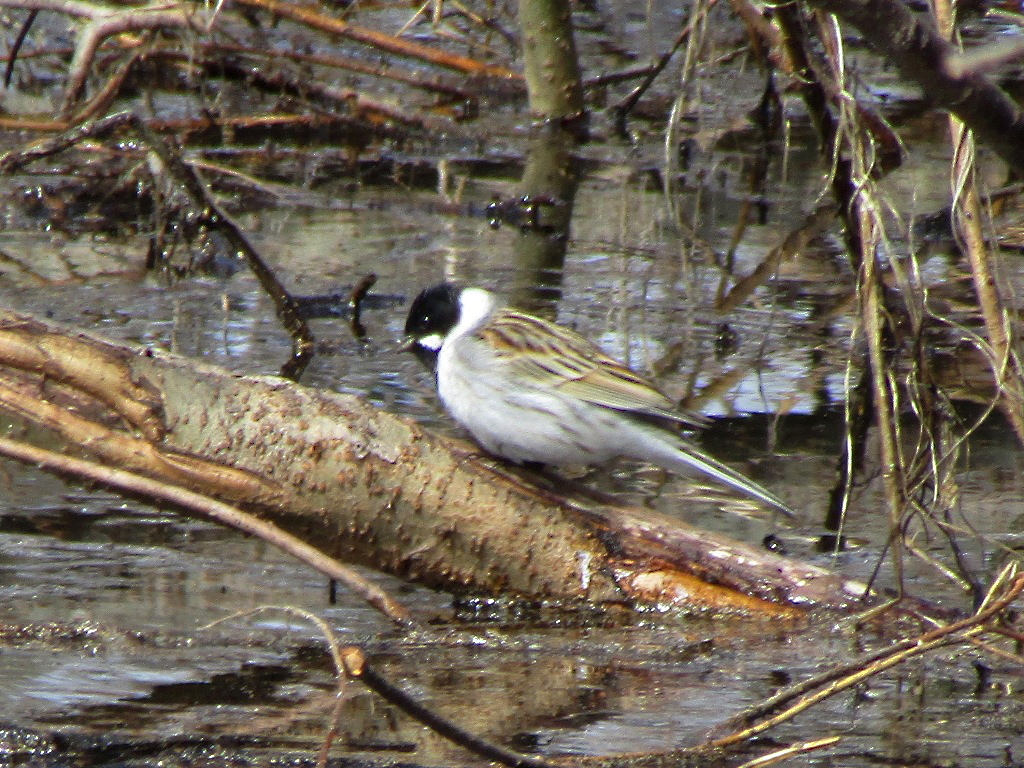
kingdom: Animalia
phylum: Chordata
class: Aves
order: Passeriformes
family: Emberizidae
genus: Emberiza
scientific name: Emberiza schoeniclus
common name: Reed bunting
